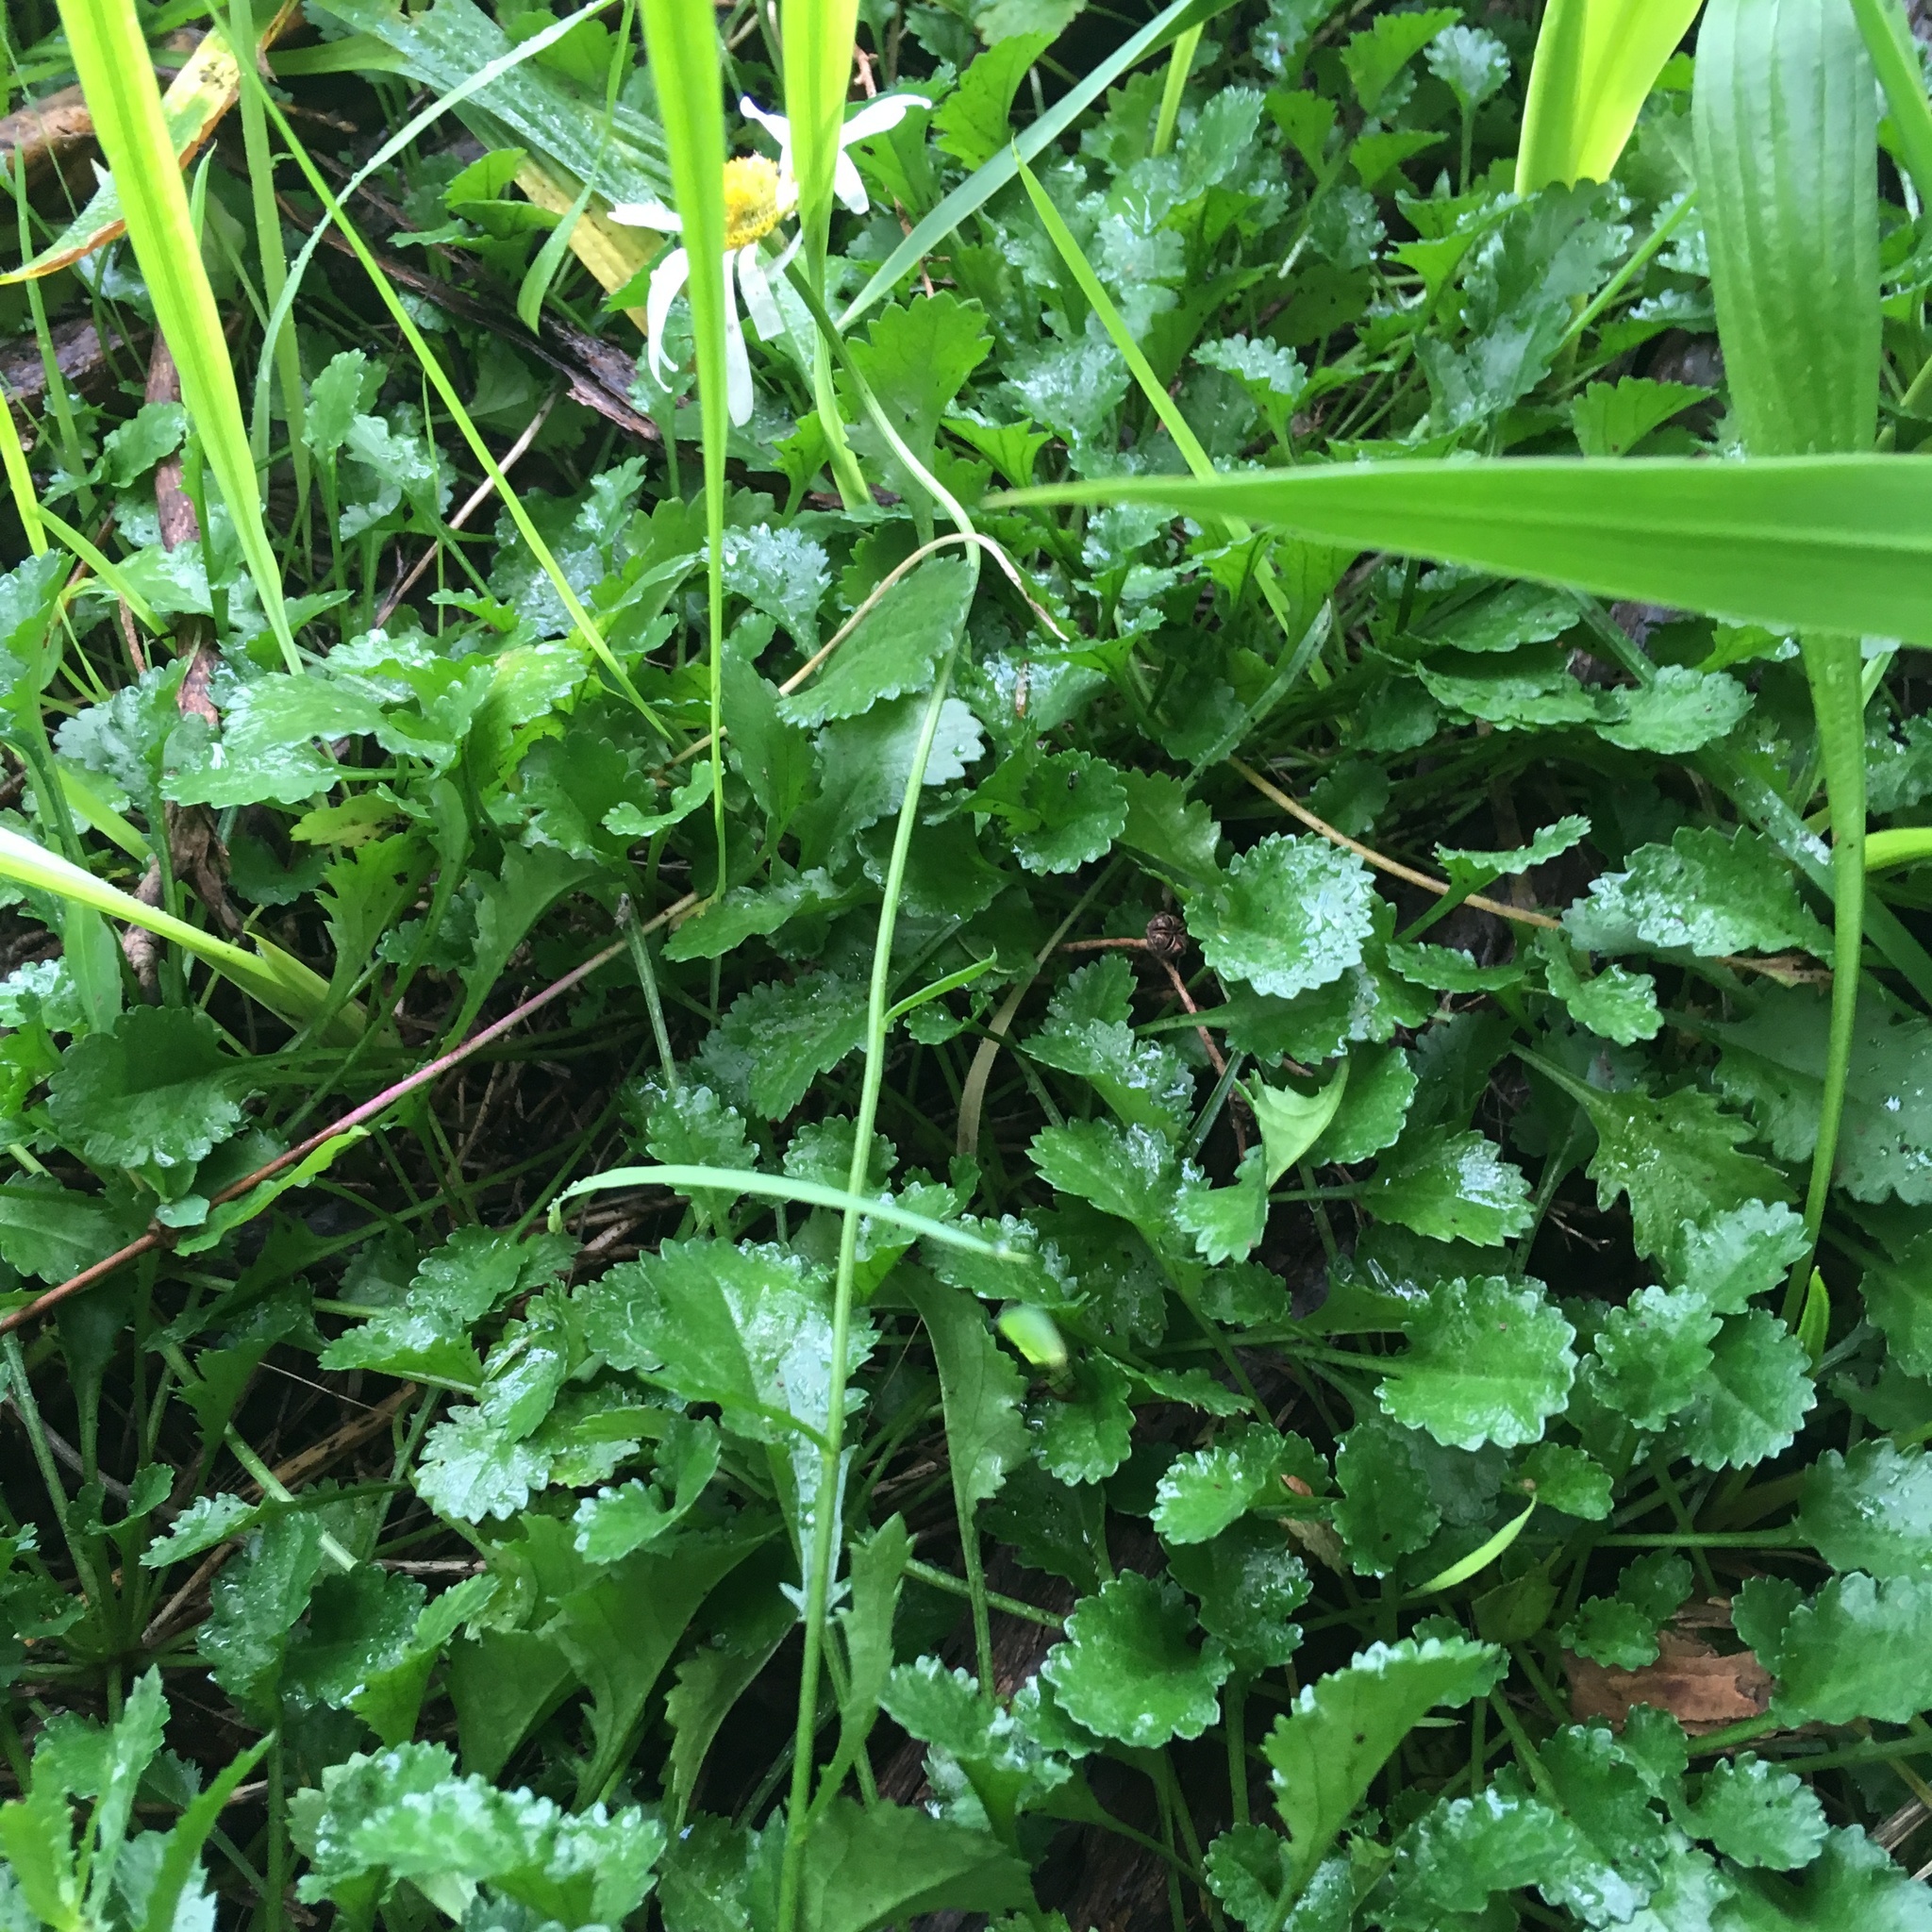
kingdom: Plantae
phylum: Tracheophyta
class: Magnoliopsida
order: Asterales
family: Asteraceae
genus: Leucanthemum
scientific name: Leucanthemum vulgare
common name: Oxeye daisy
